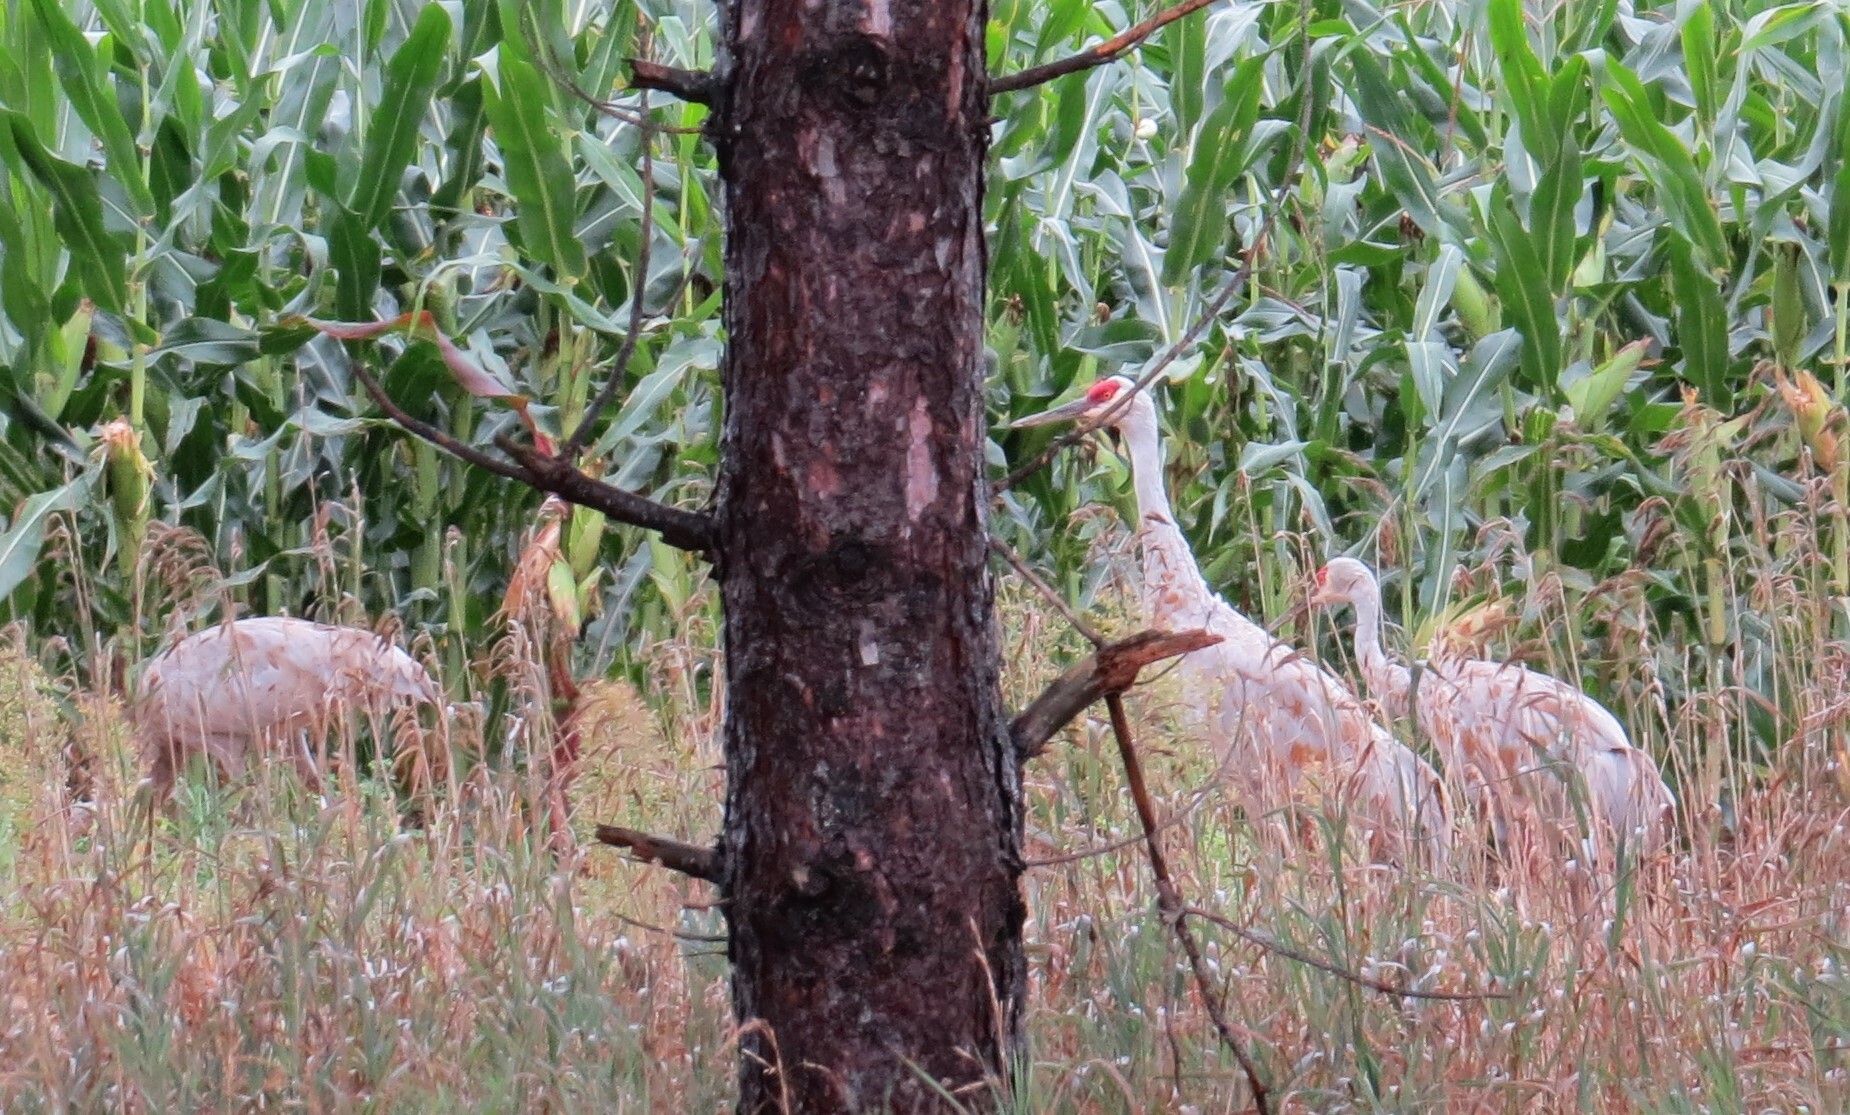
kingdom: Animalia
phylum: Chordata
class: Aves
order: Gruiformes
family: Gruidae
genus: Grus
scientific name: Grus canadensis
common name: Sandhill crane
